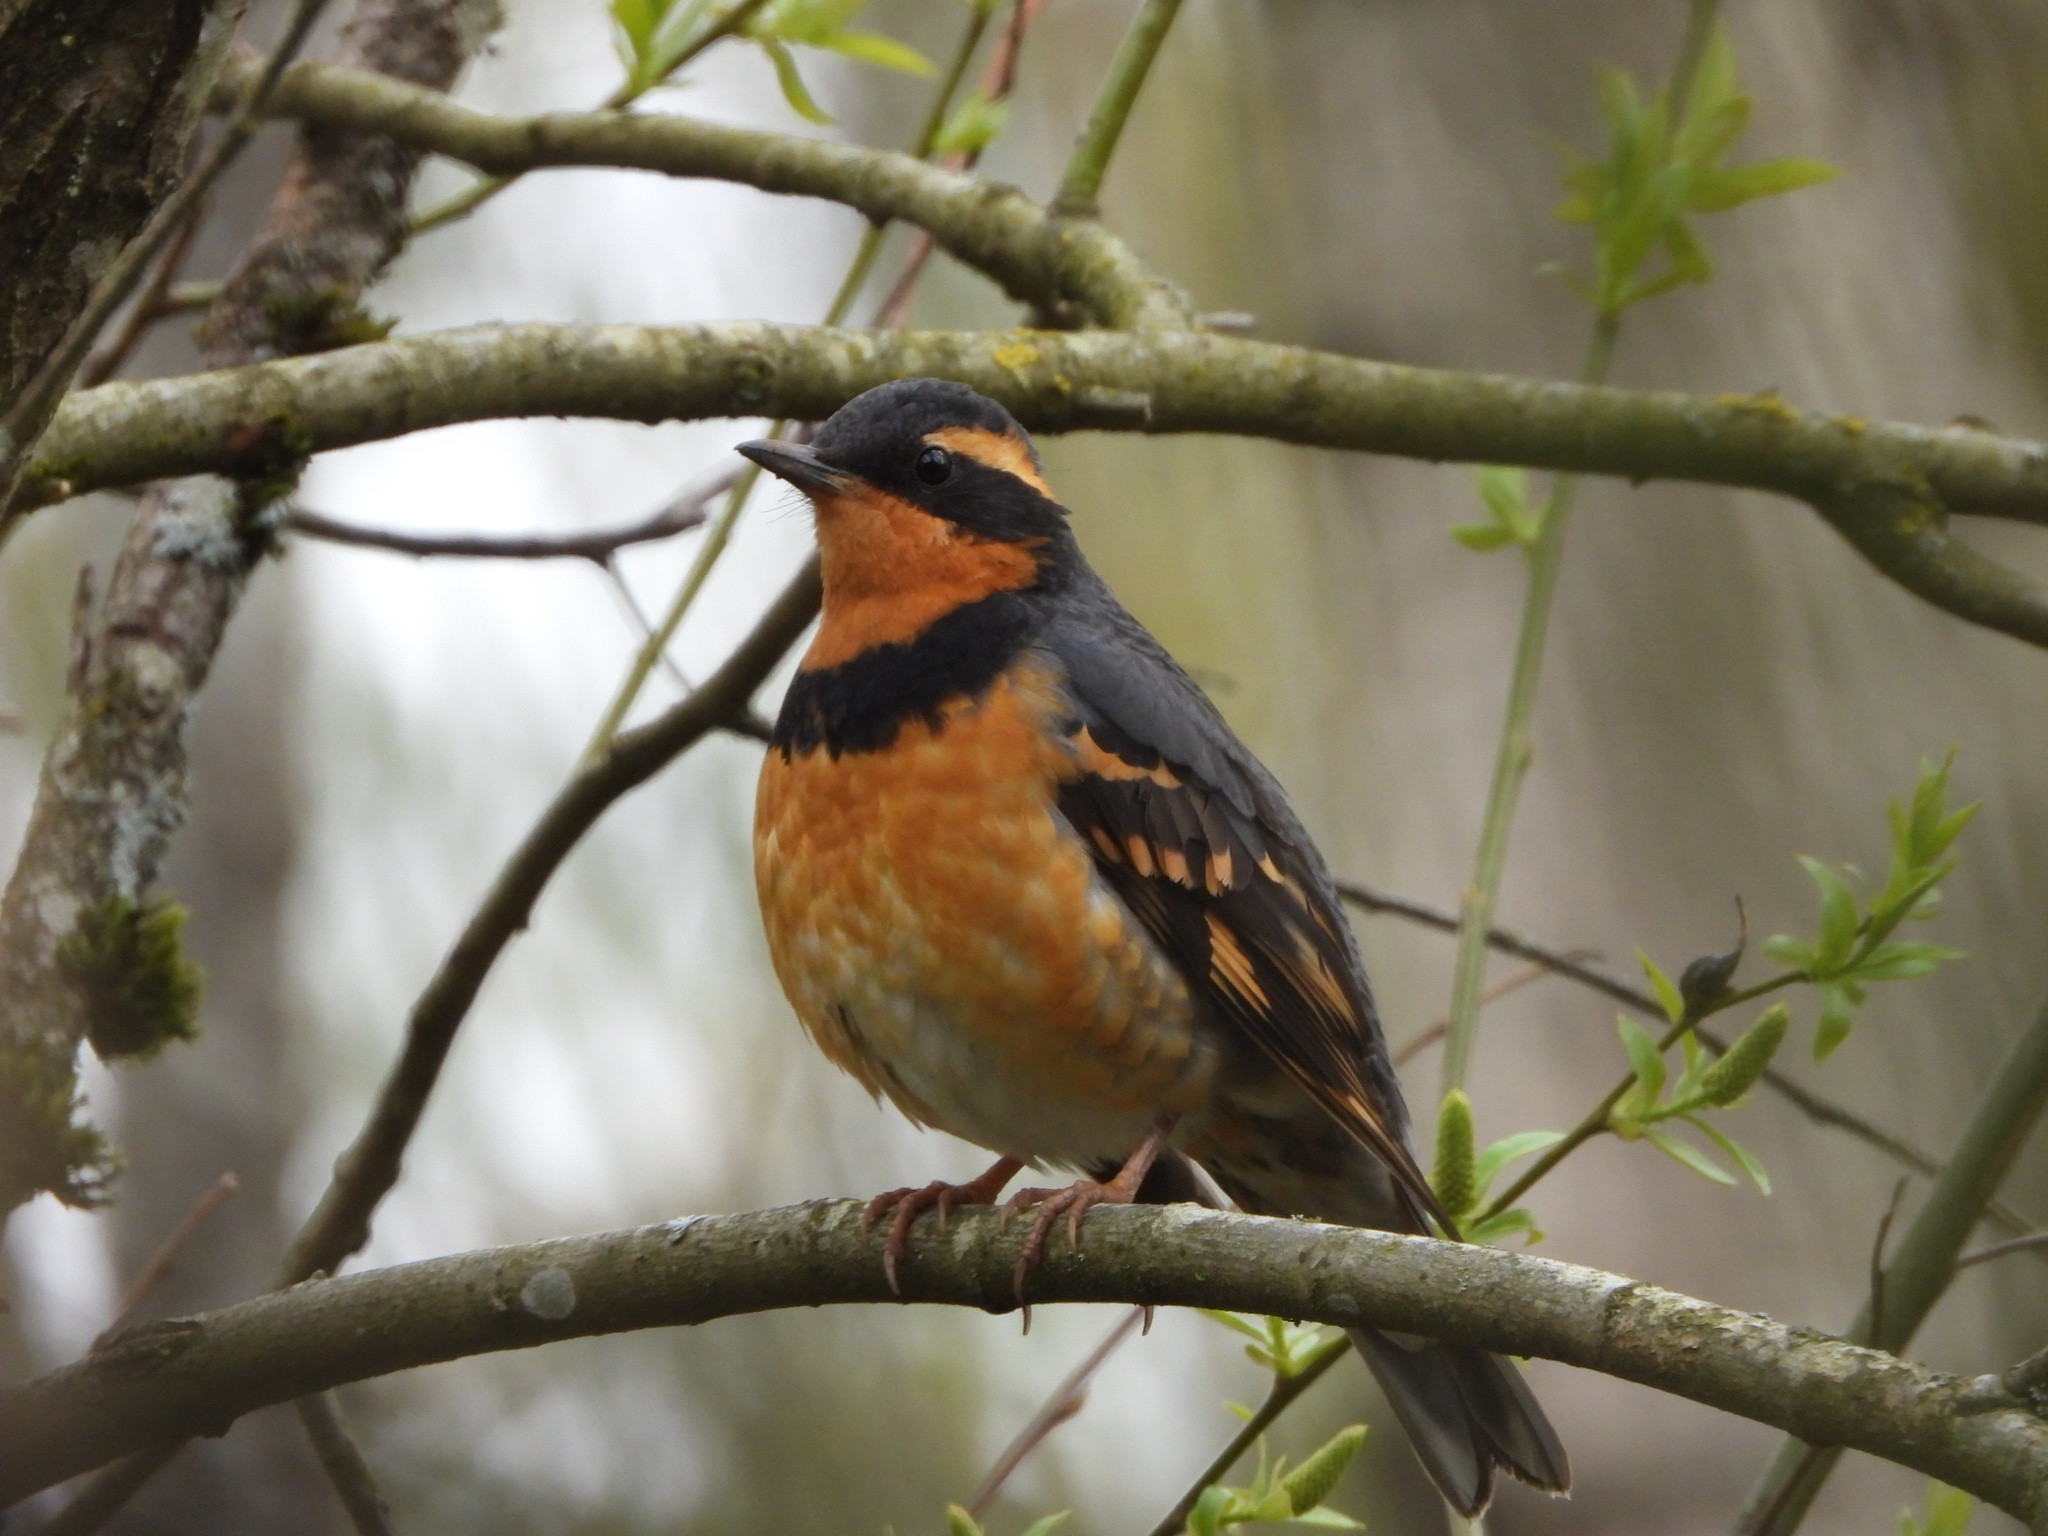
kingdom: Animalia
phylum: Chordata
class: Aves
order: Passeriformes
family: Turdidae
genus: Ixoreus
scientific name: Ixoreus naevius
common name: Varied thrush
